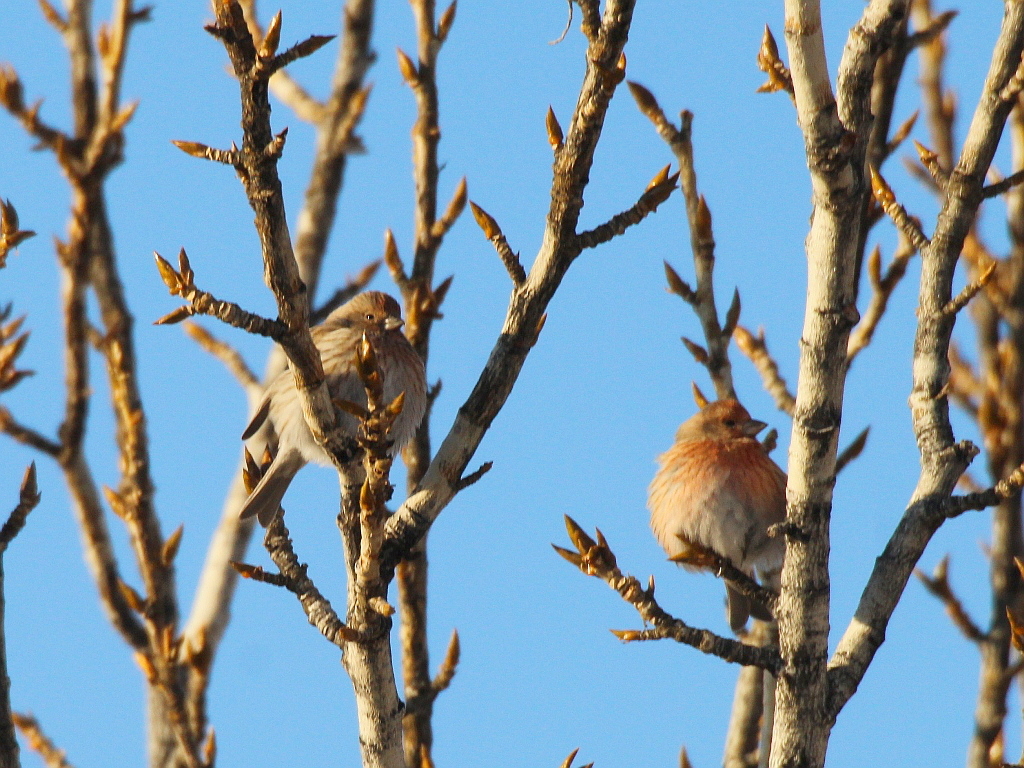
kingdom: Animalia
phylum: Chordata
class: Aves
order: Passeriformes
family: Fringillidae
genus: Carpodacus
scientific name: Carpodacus roseus
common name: Pallas's rosefinch
